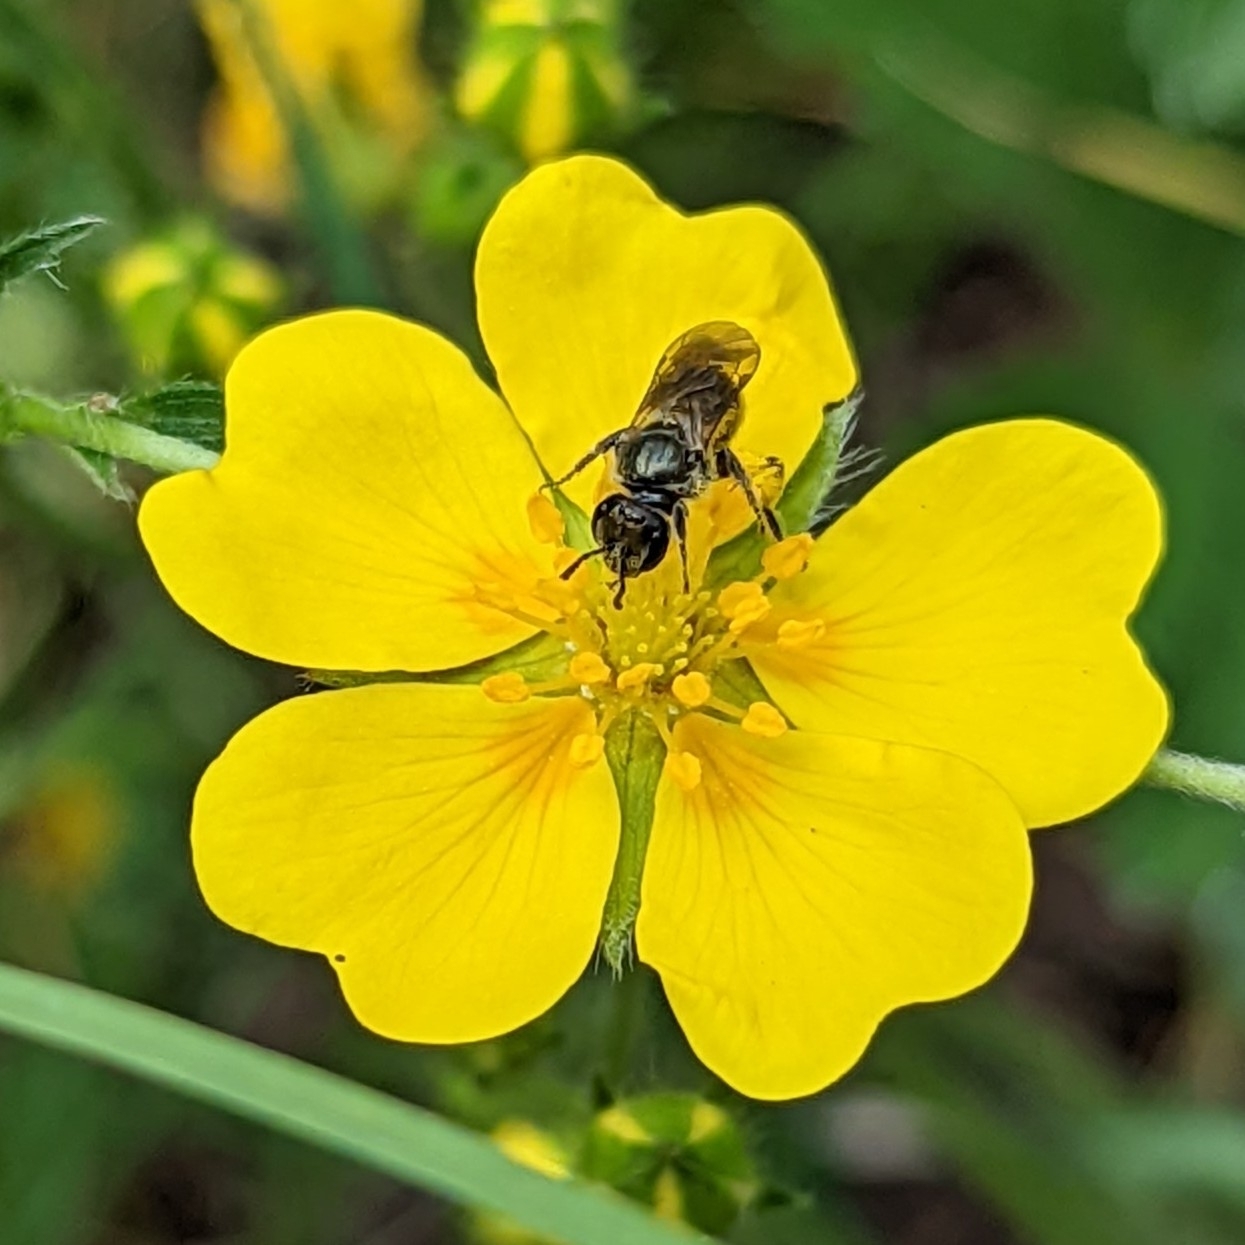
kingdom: Animalia
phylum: Arthropoda
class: Insecta
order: Hymenoptera
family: Halictidae
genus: Dialictus
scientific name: Dialictus
